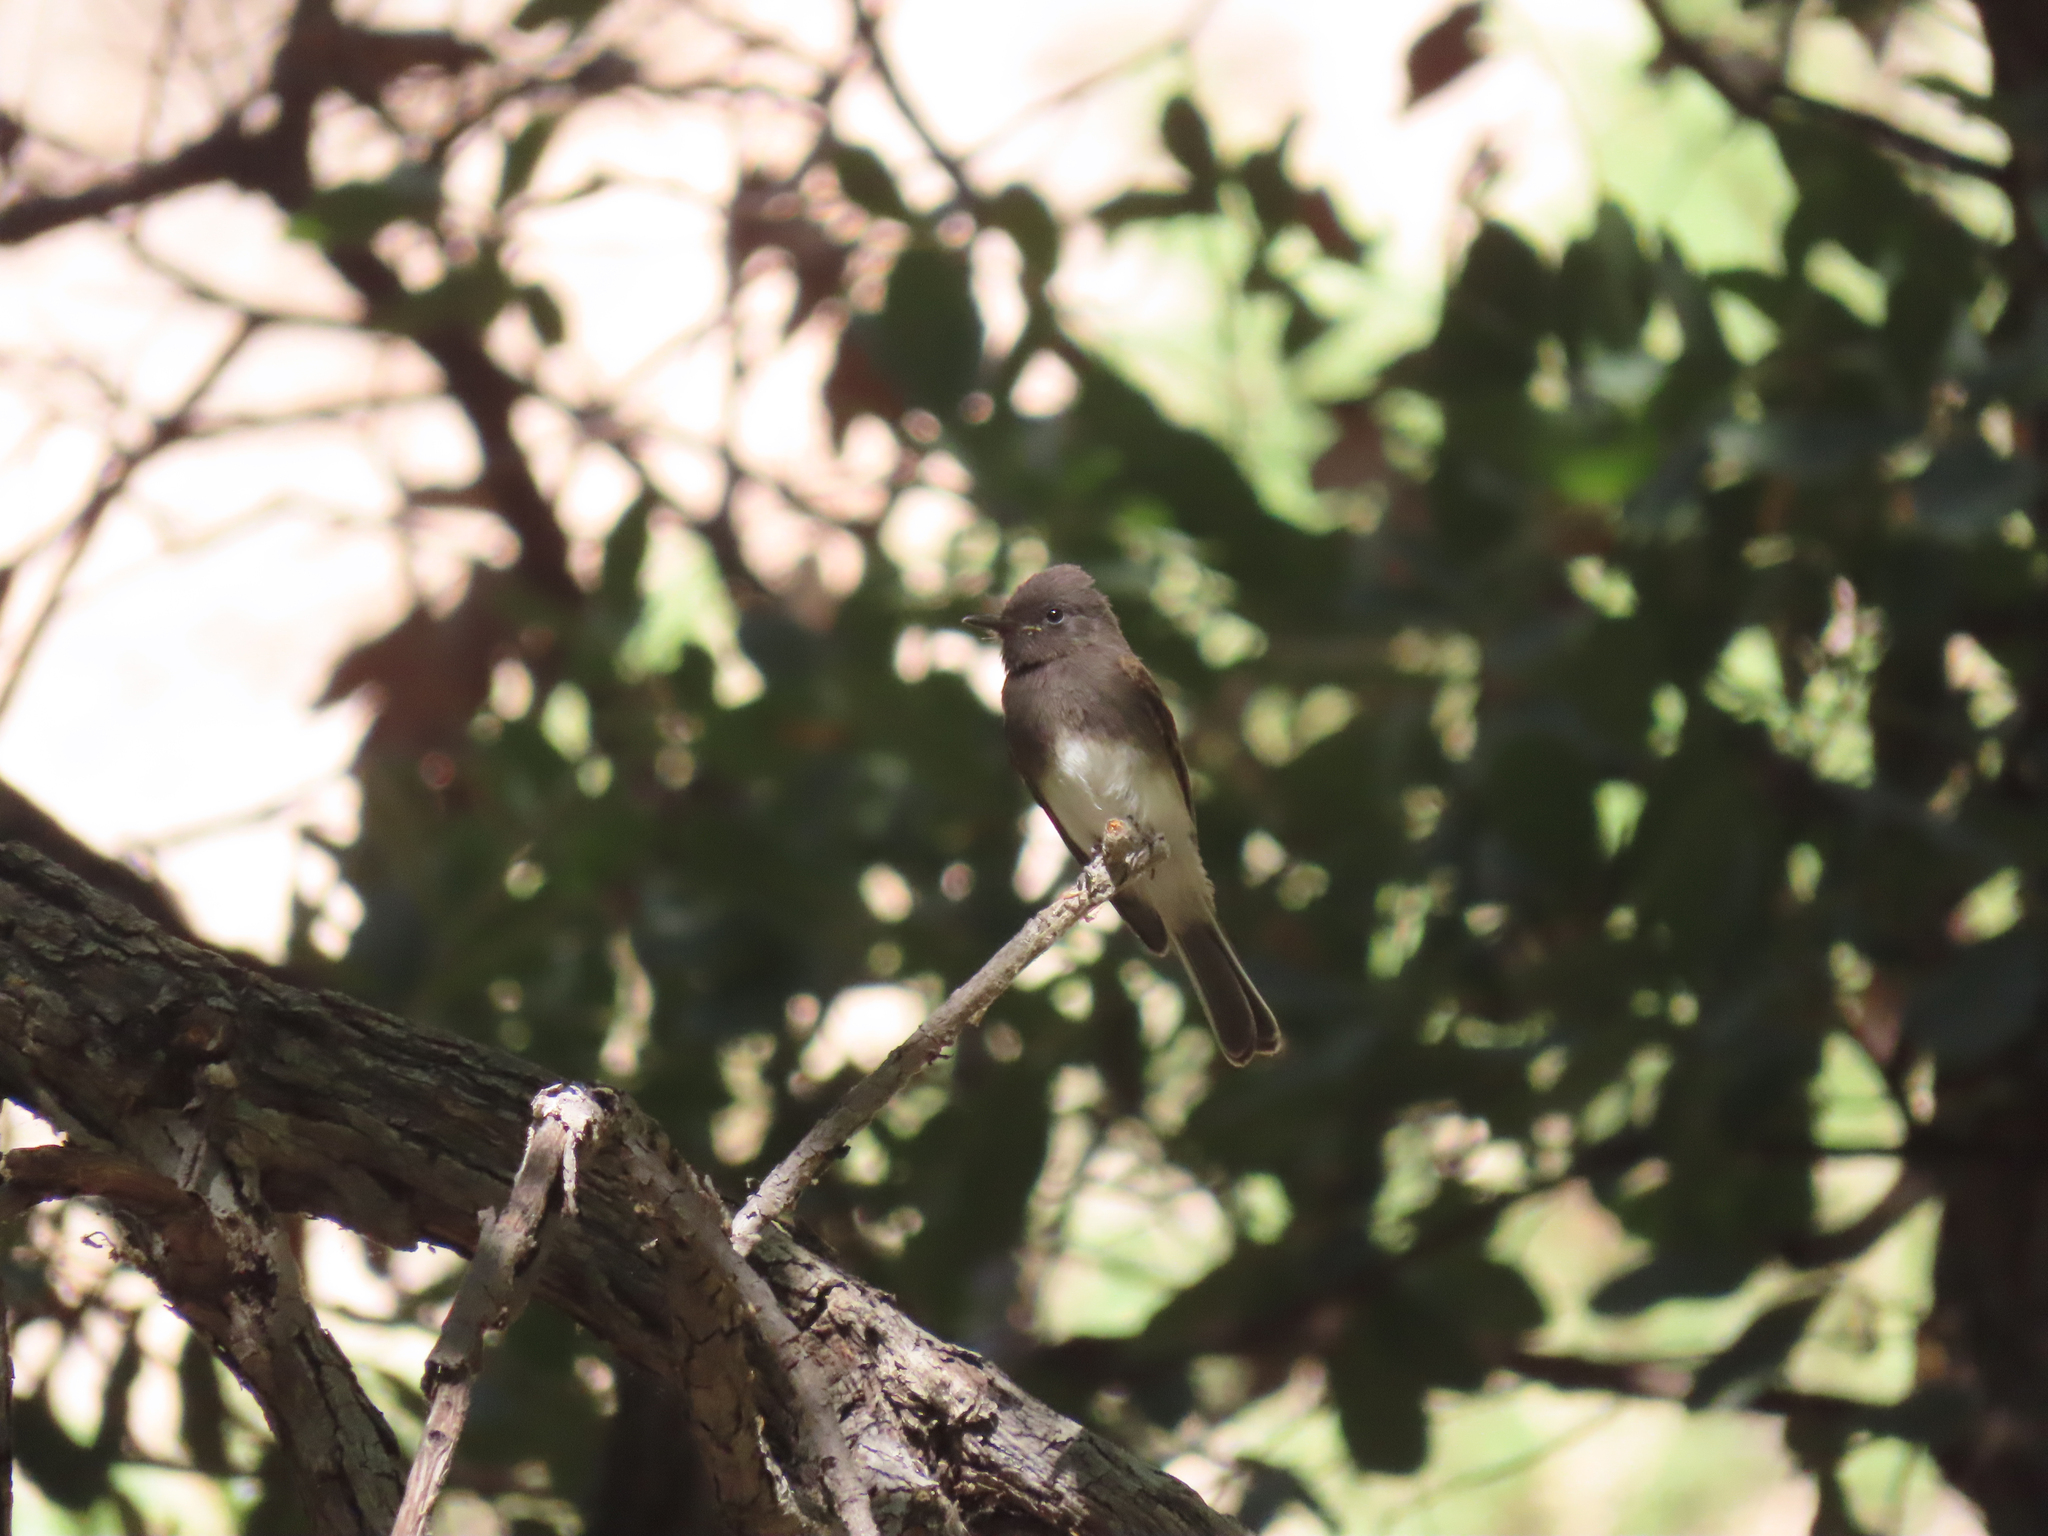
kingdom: Animalia
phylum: Chordata
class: Aves
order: Passeriformes
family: Tyrannidae
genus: Sayornis
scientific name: Sayornis nigricans
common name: Black phoebe
